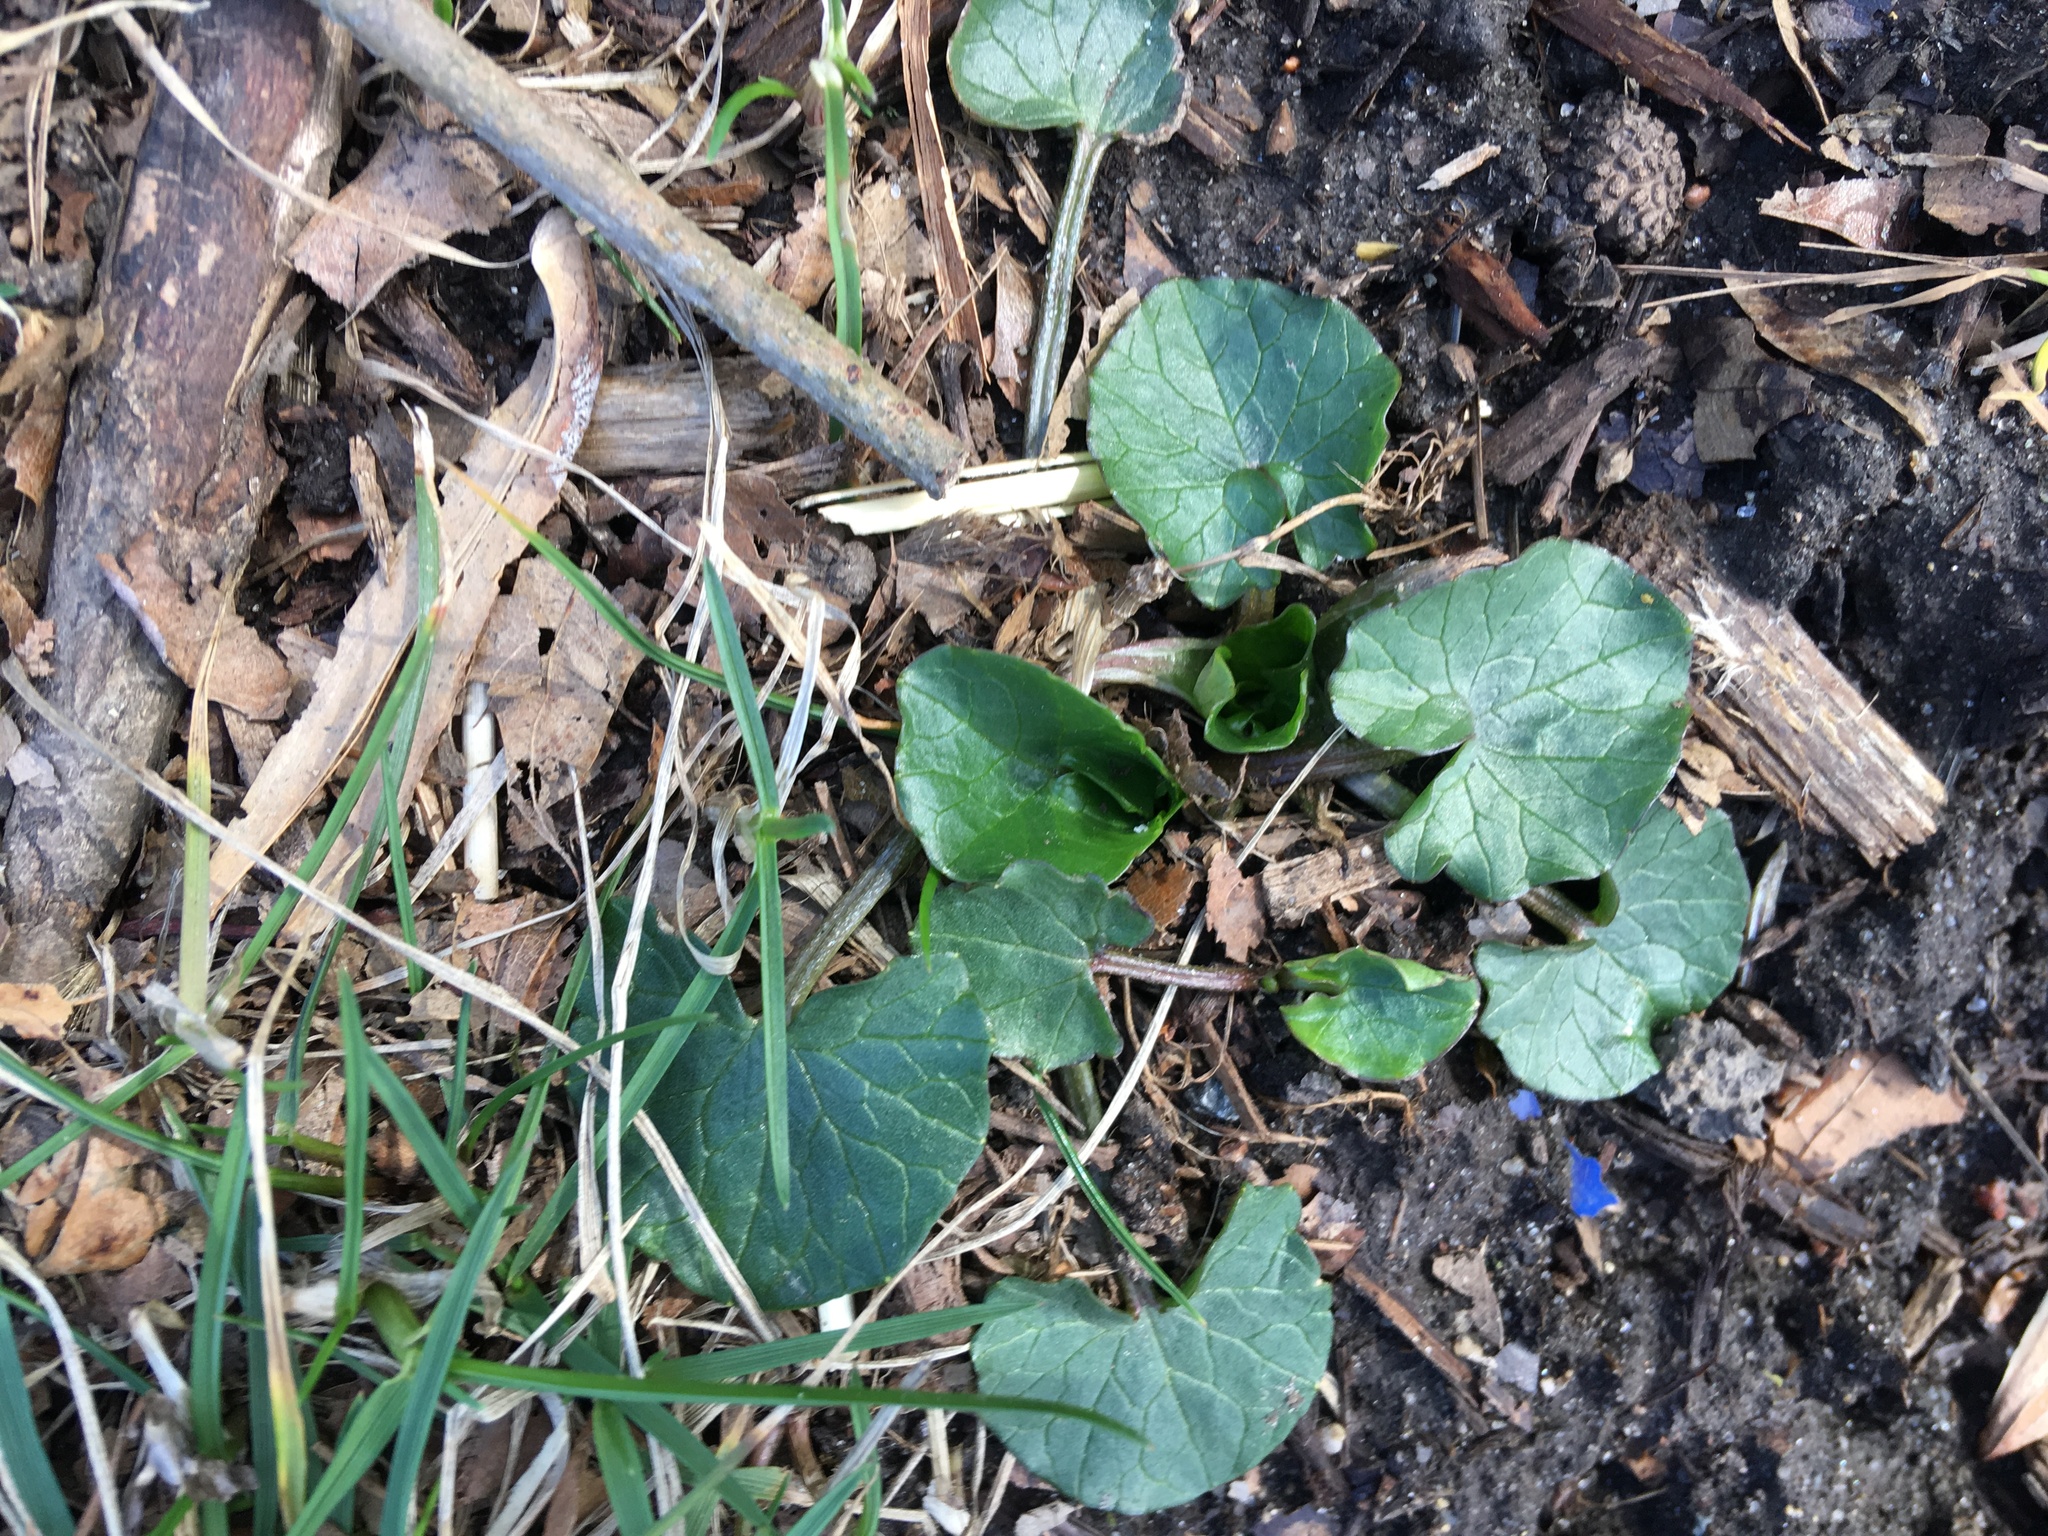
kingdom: Plantae
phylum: Tracheophyta
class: Magnoliopsida
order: Ranunculales
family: Ranunculaceae
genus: Ficaria
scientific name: Ficaria verna
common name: Lesser celandine
